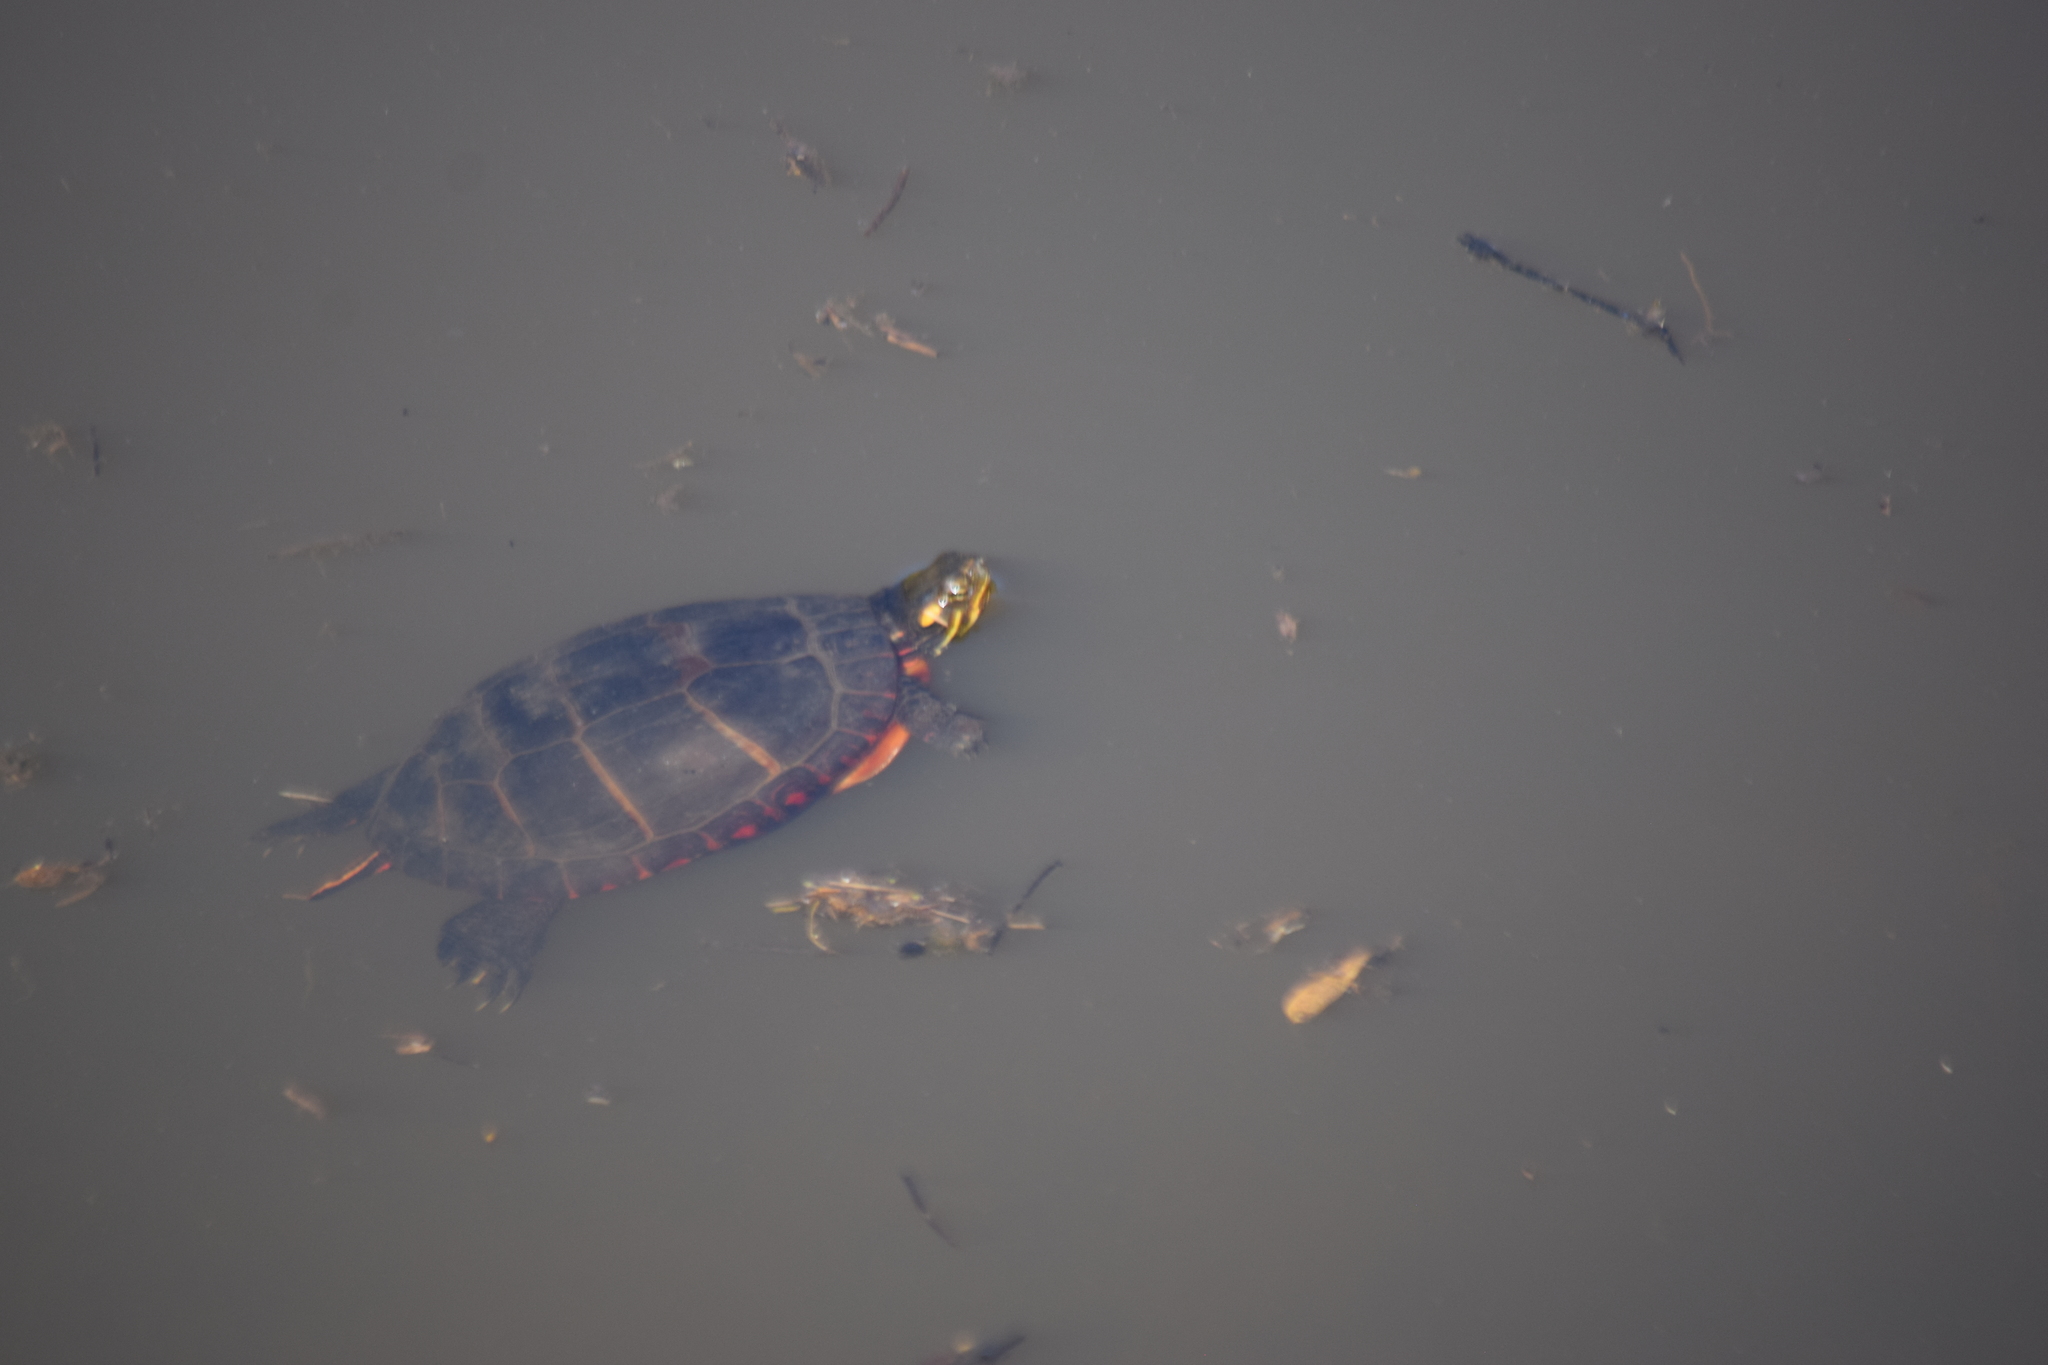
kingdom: Animalia
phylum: Chordata
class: Testudines
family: Emydidae
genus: Chrysemys
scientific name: Chrysemys picta
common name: Painted turtle
